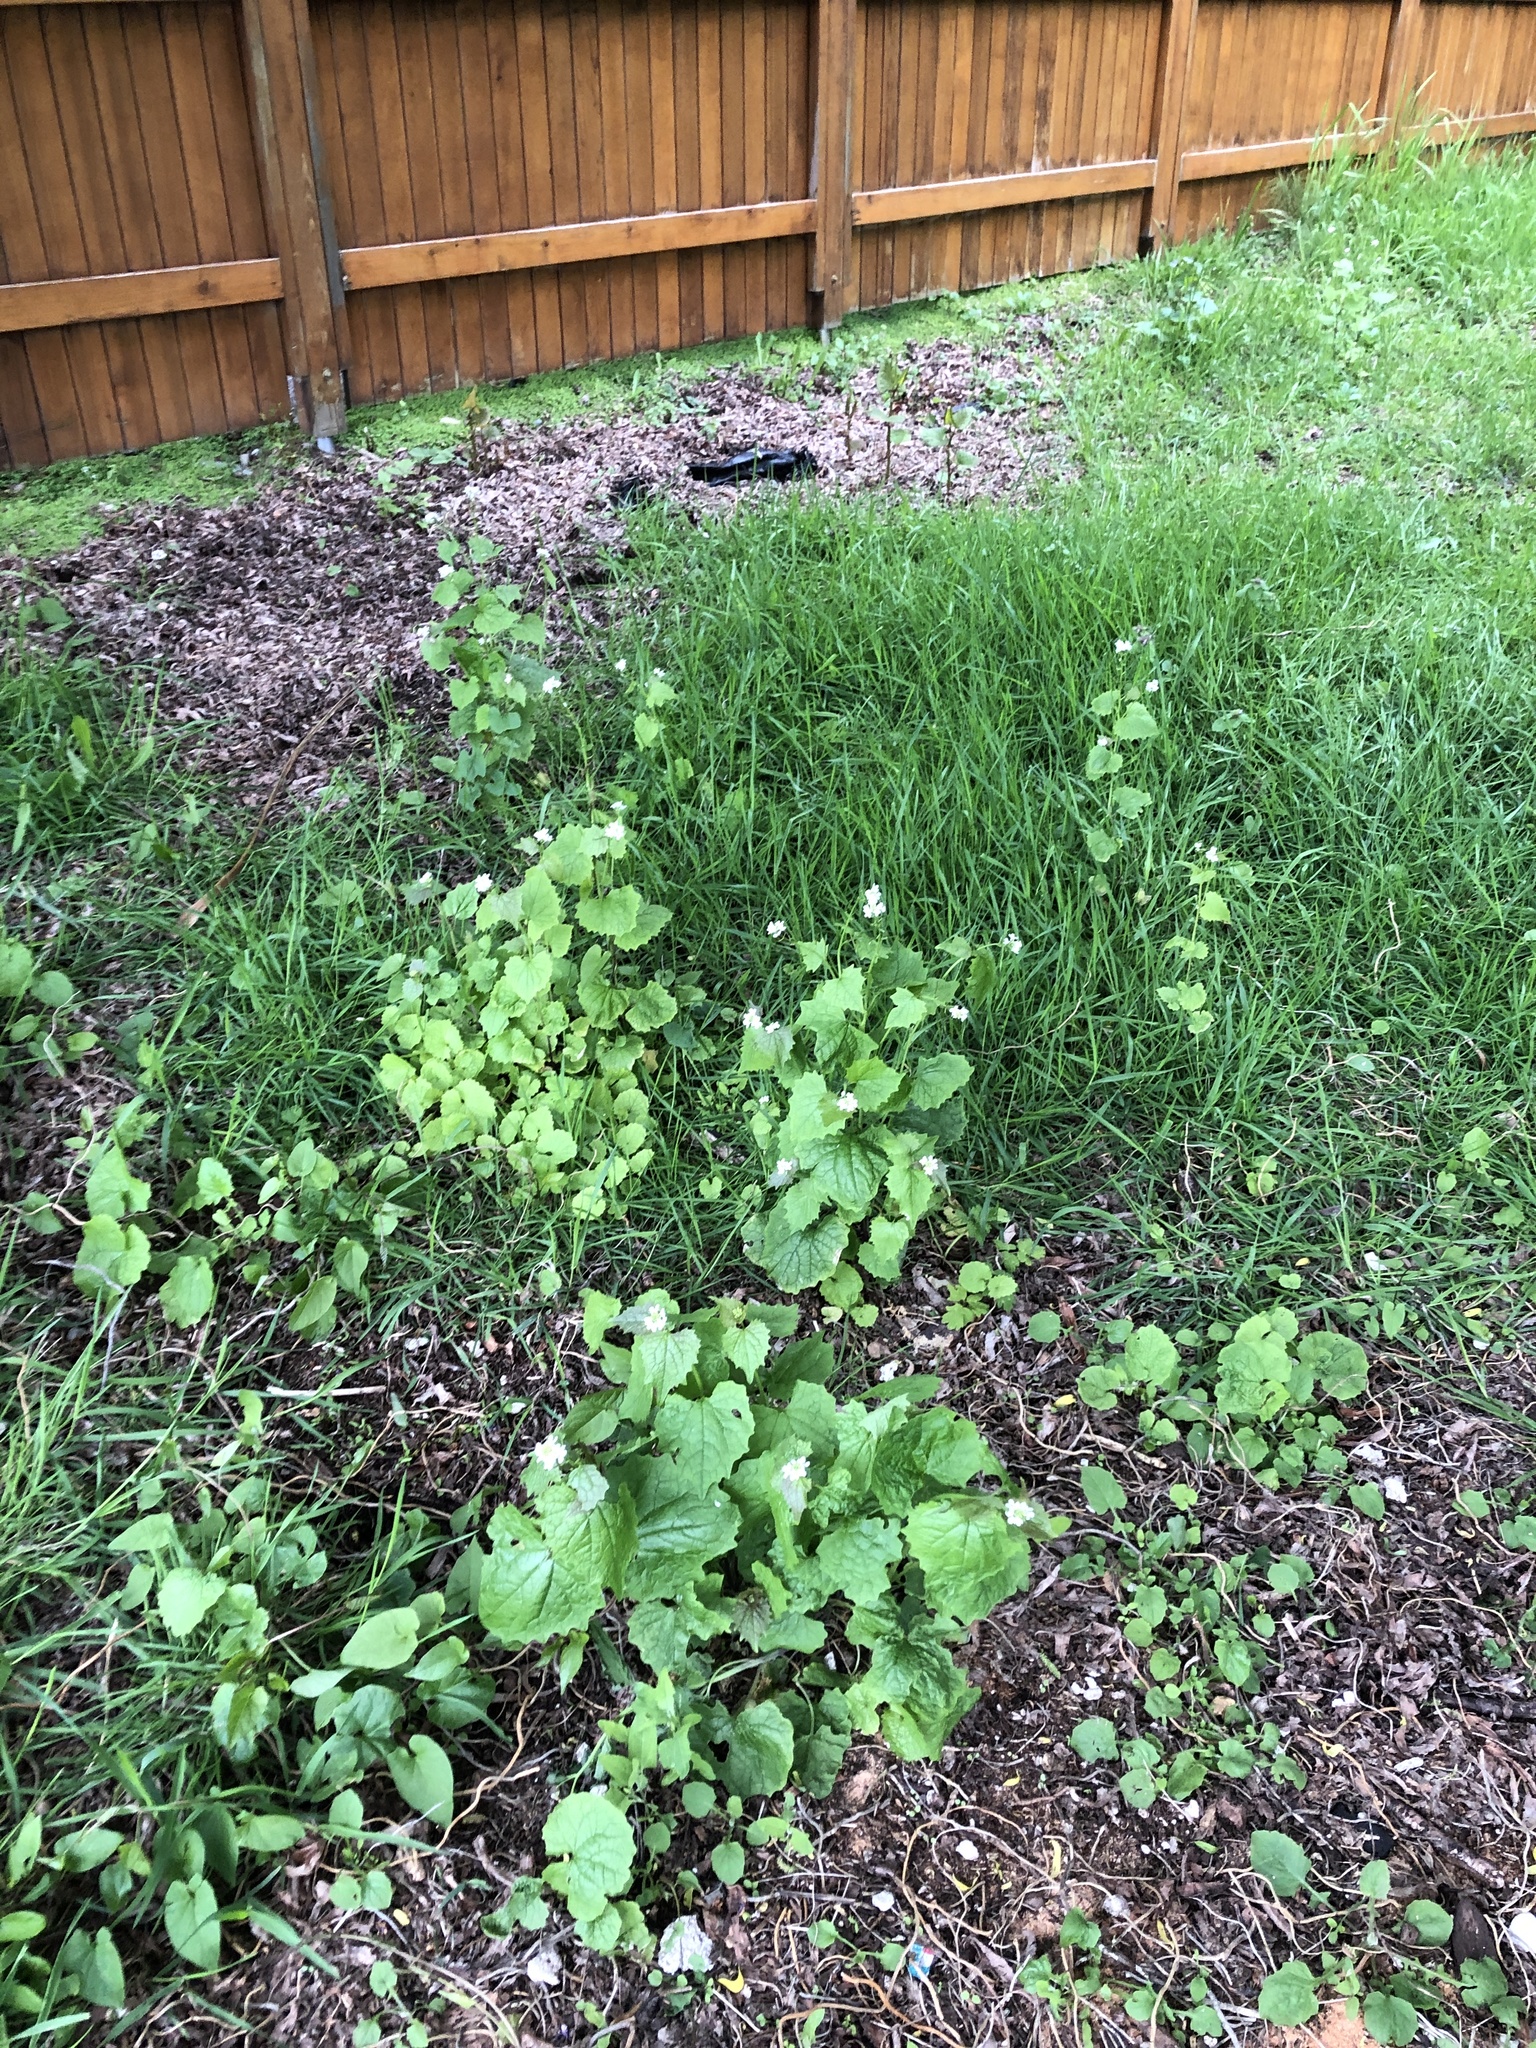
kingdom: Plantae
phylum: Tracheophyta
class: Magnoliopsida
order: Brassicales
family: Brassicaceae
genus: Alliaria
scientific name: Alliaria petiolata
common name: Garlic mustard
